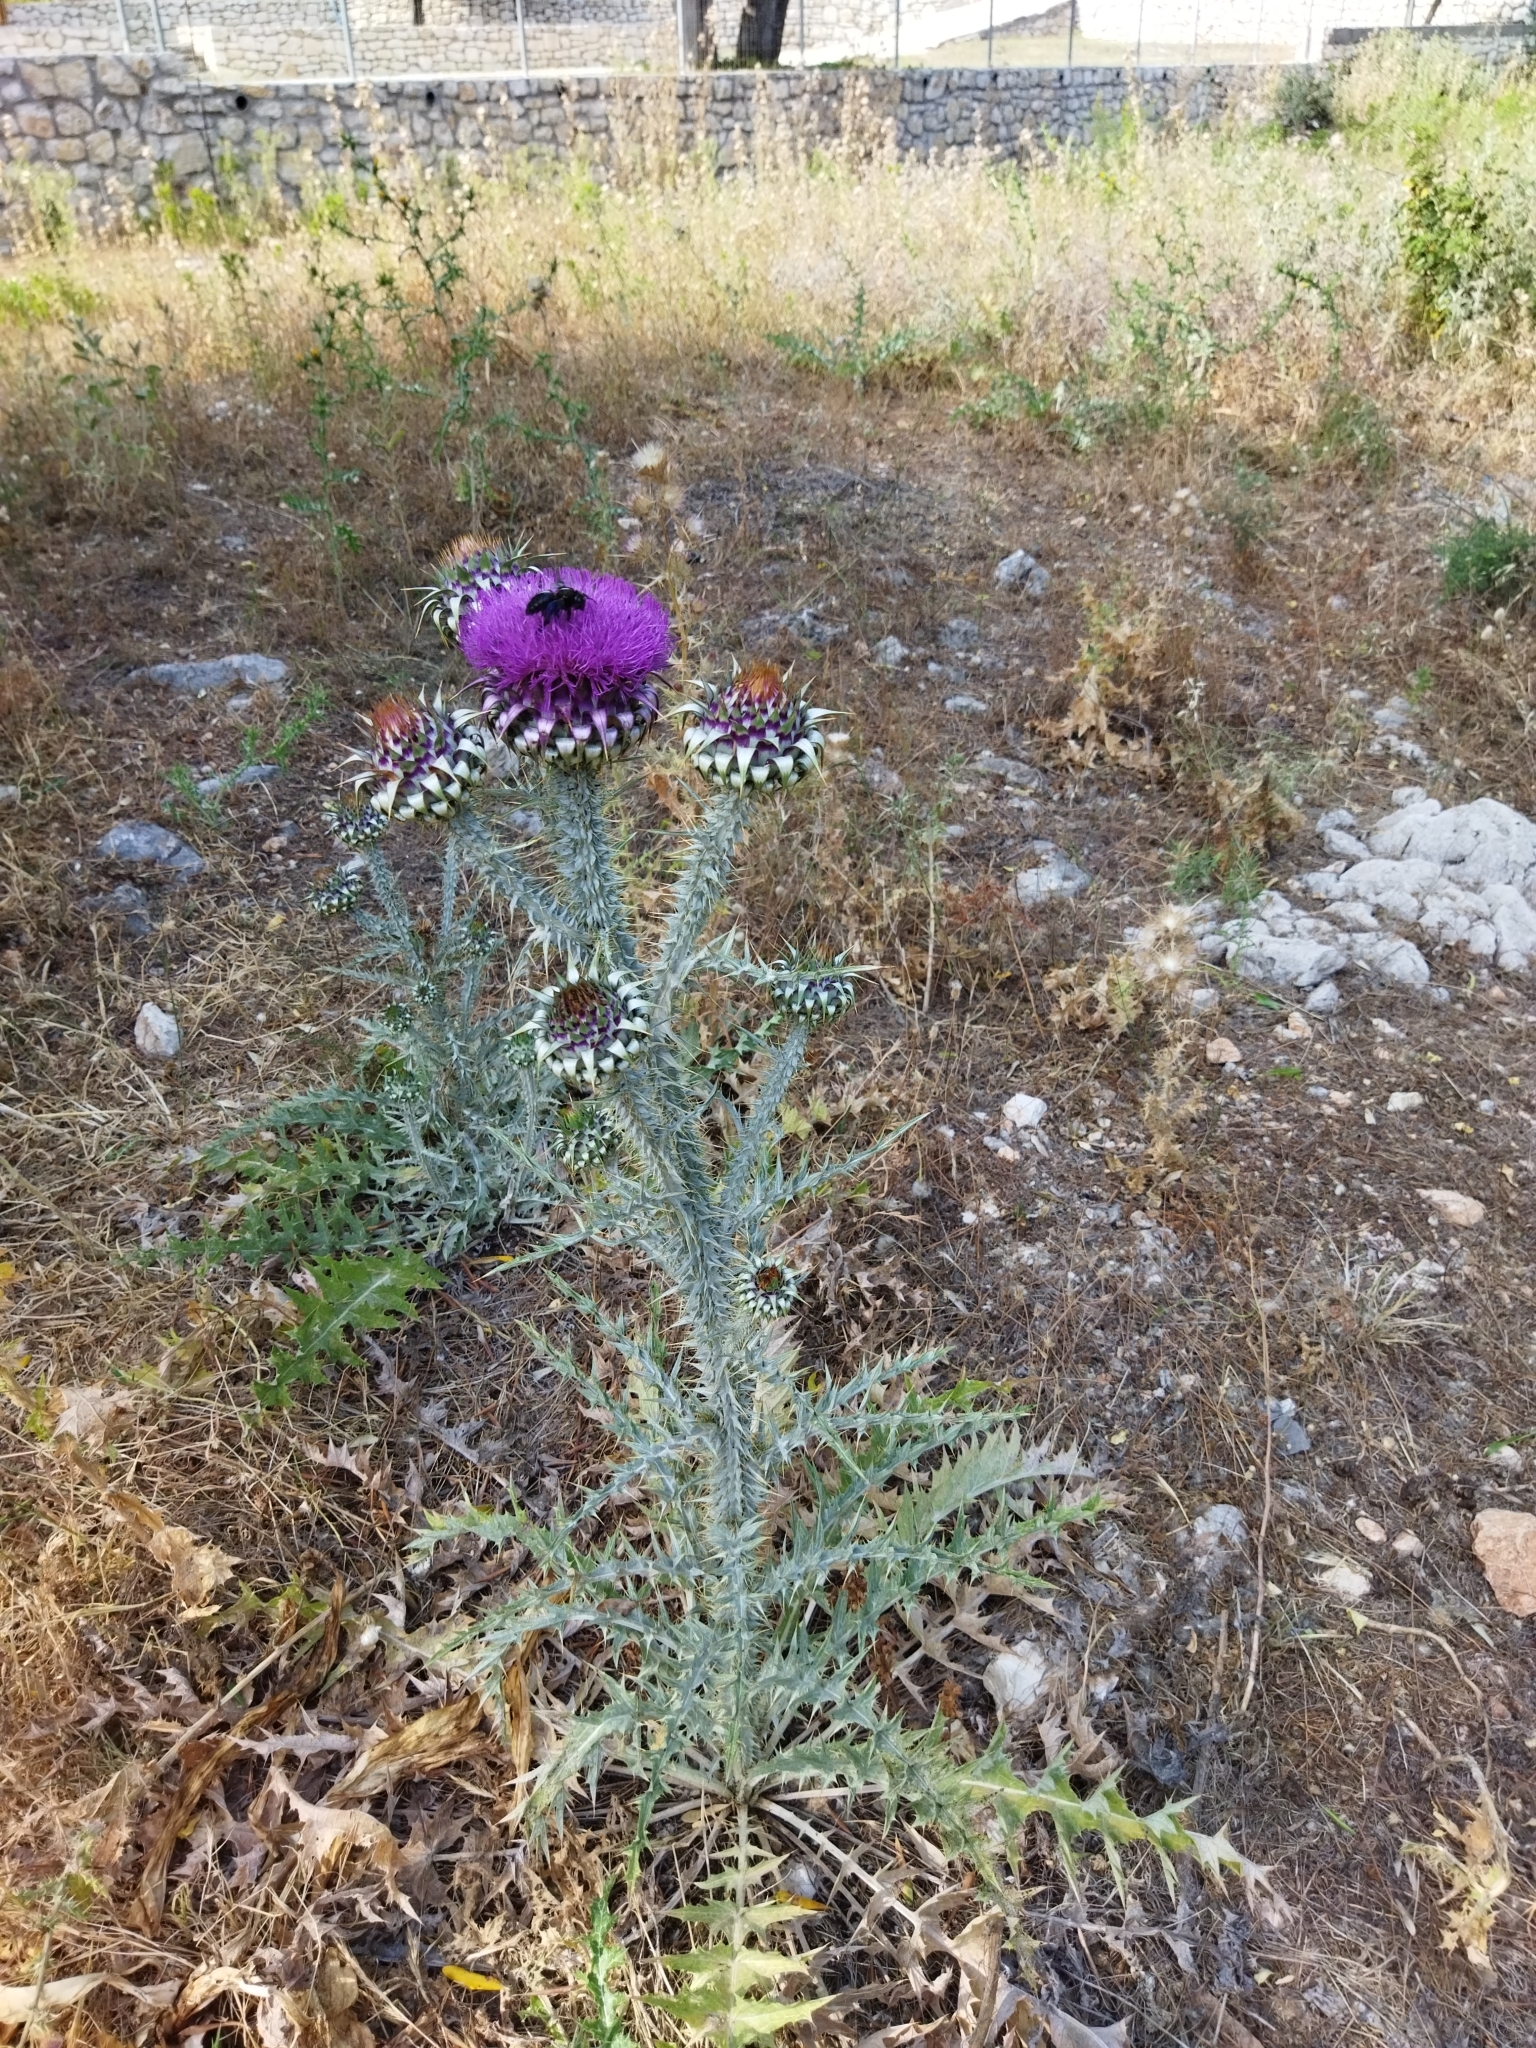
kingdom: Plantae
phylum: Tracheophyta
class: Magnoliopsida
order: Asterales
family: Asteraceae
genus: Onopordum
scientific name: Onopordum illyricum
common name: Illyrian thistle
